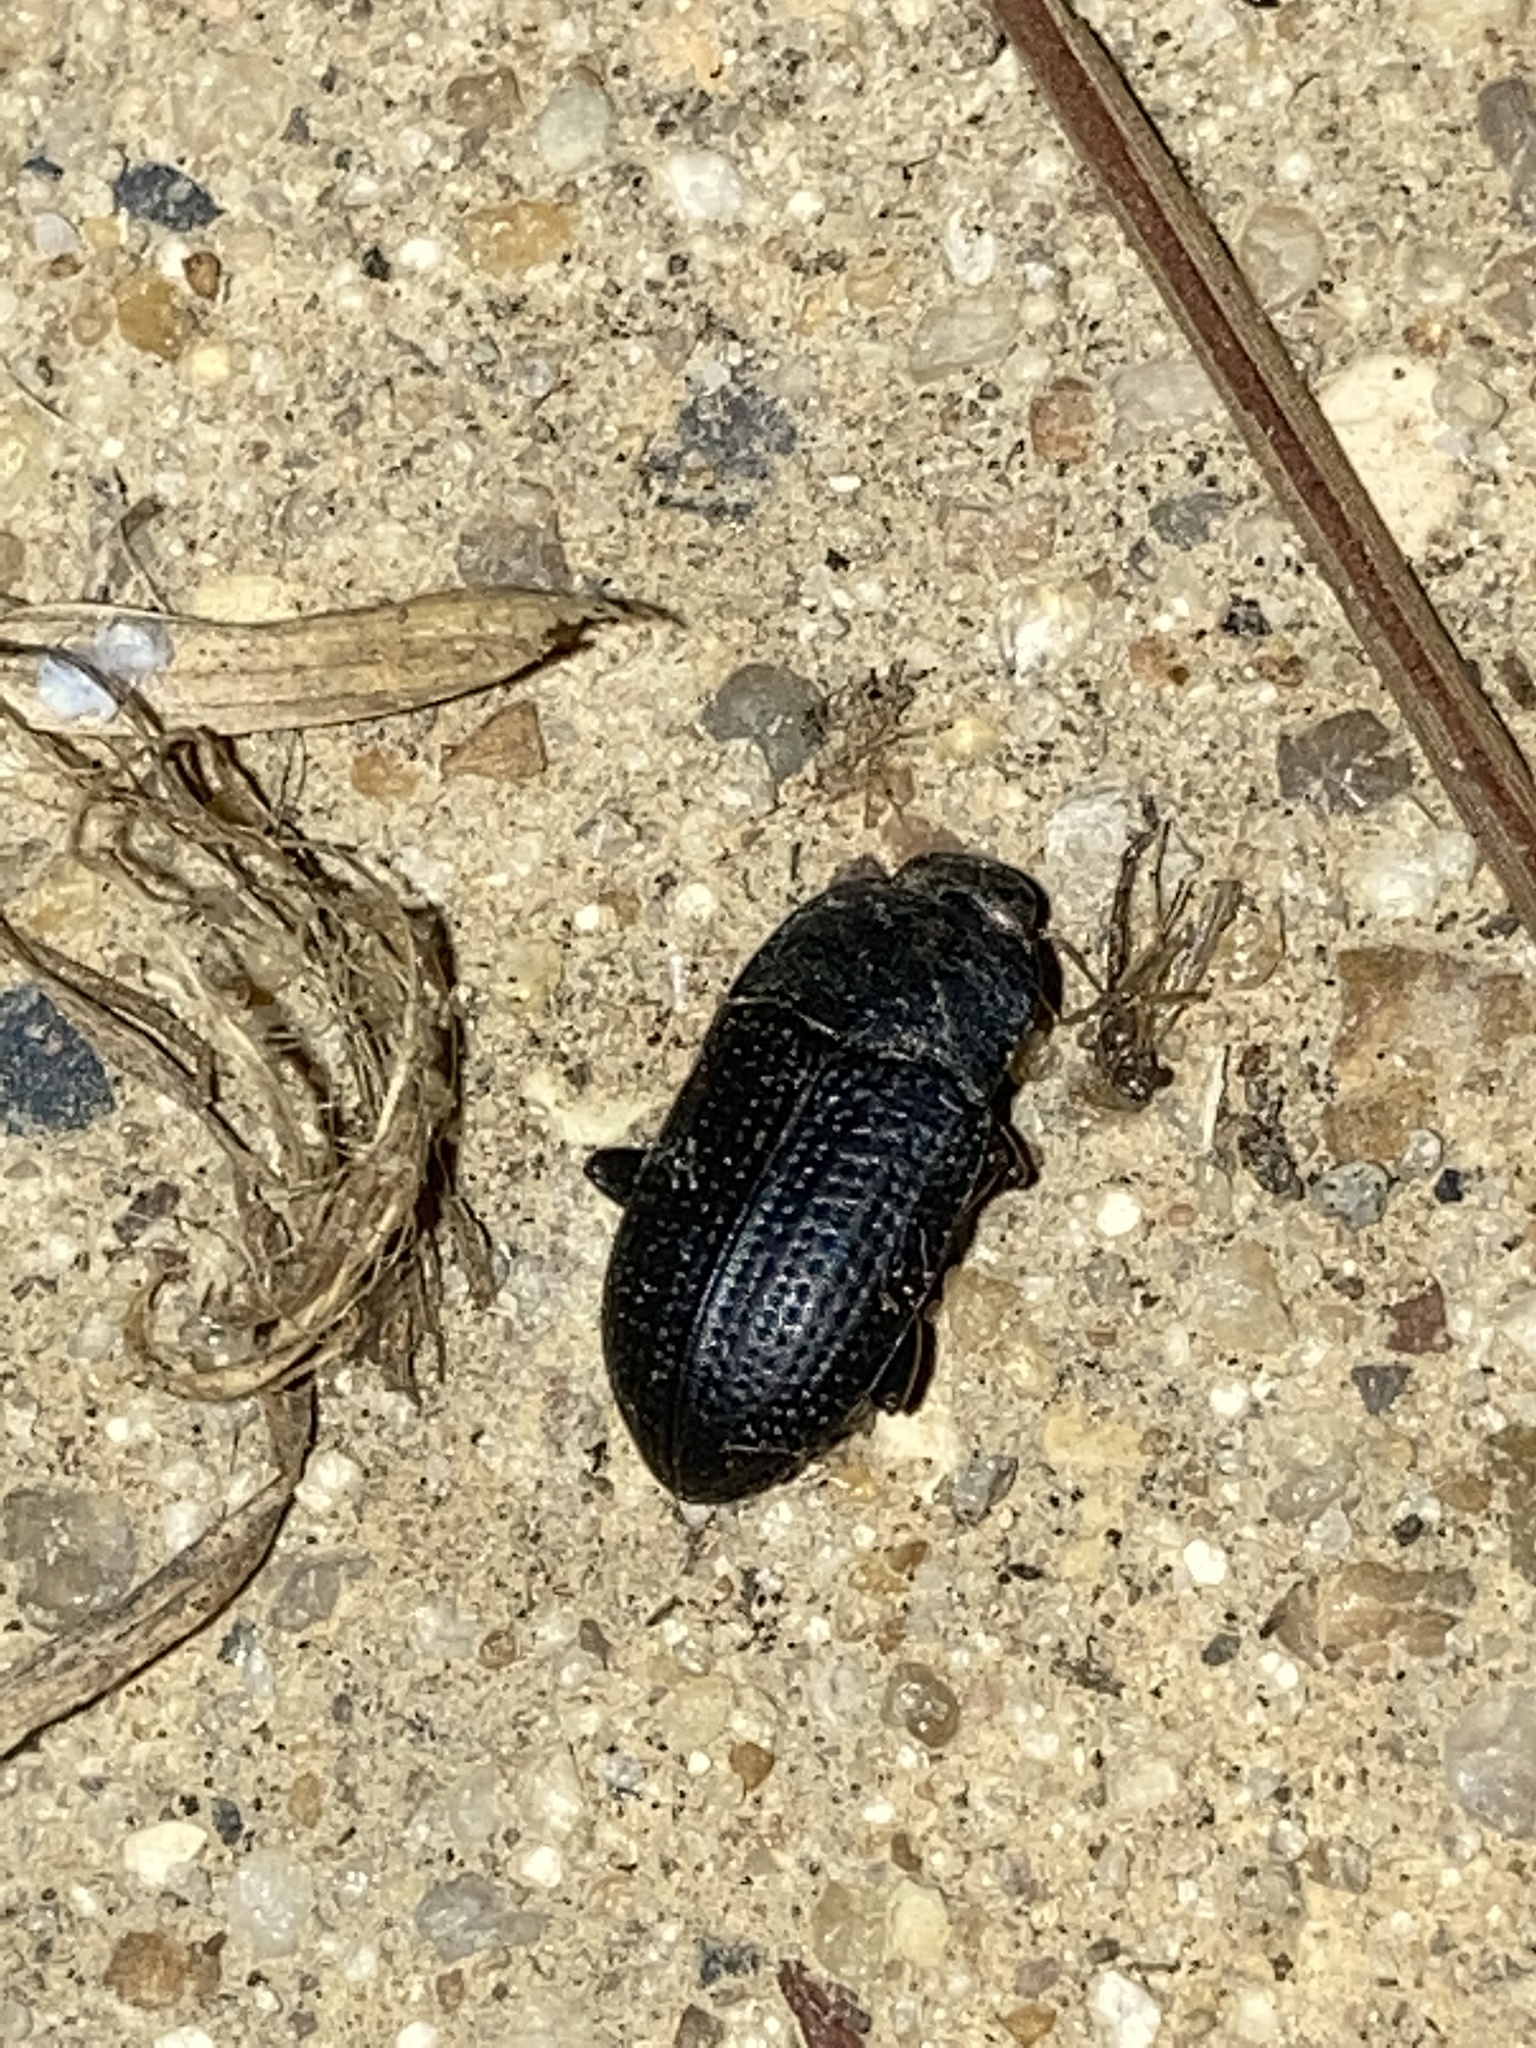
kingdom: Animalia
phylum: Arthropoda
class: Insecta
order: Coleoptera
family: Tenebrionidae
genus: Asiopus
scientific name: Asiopus
